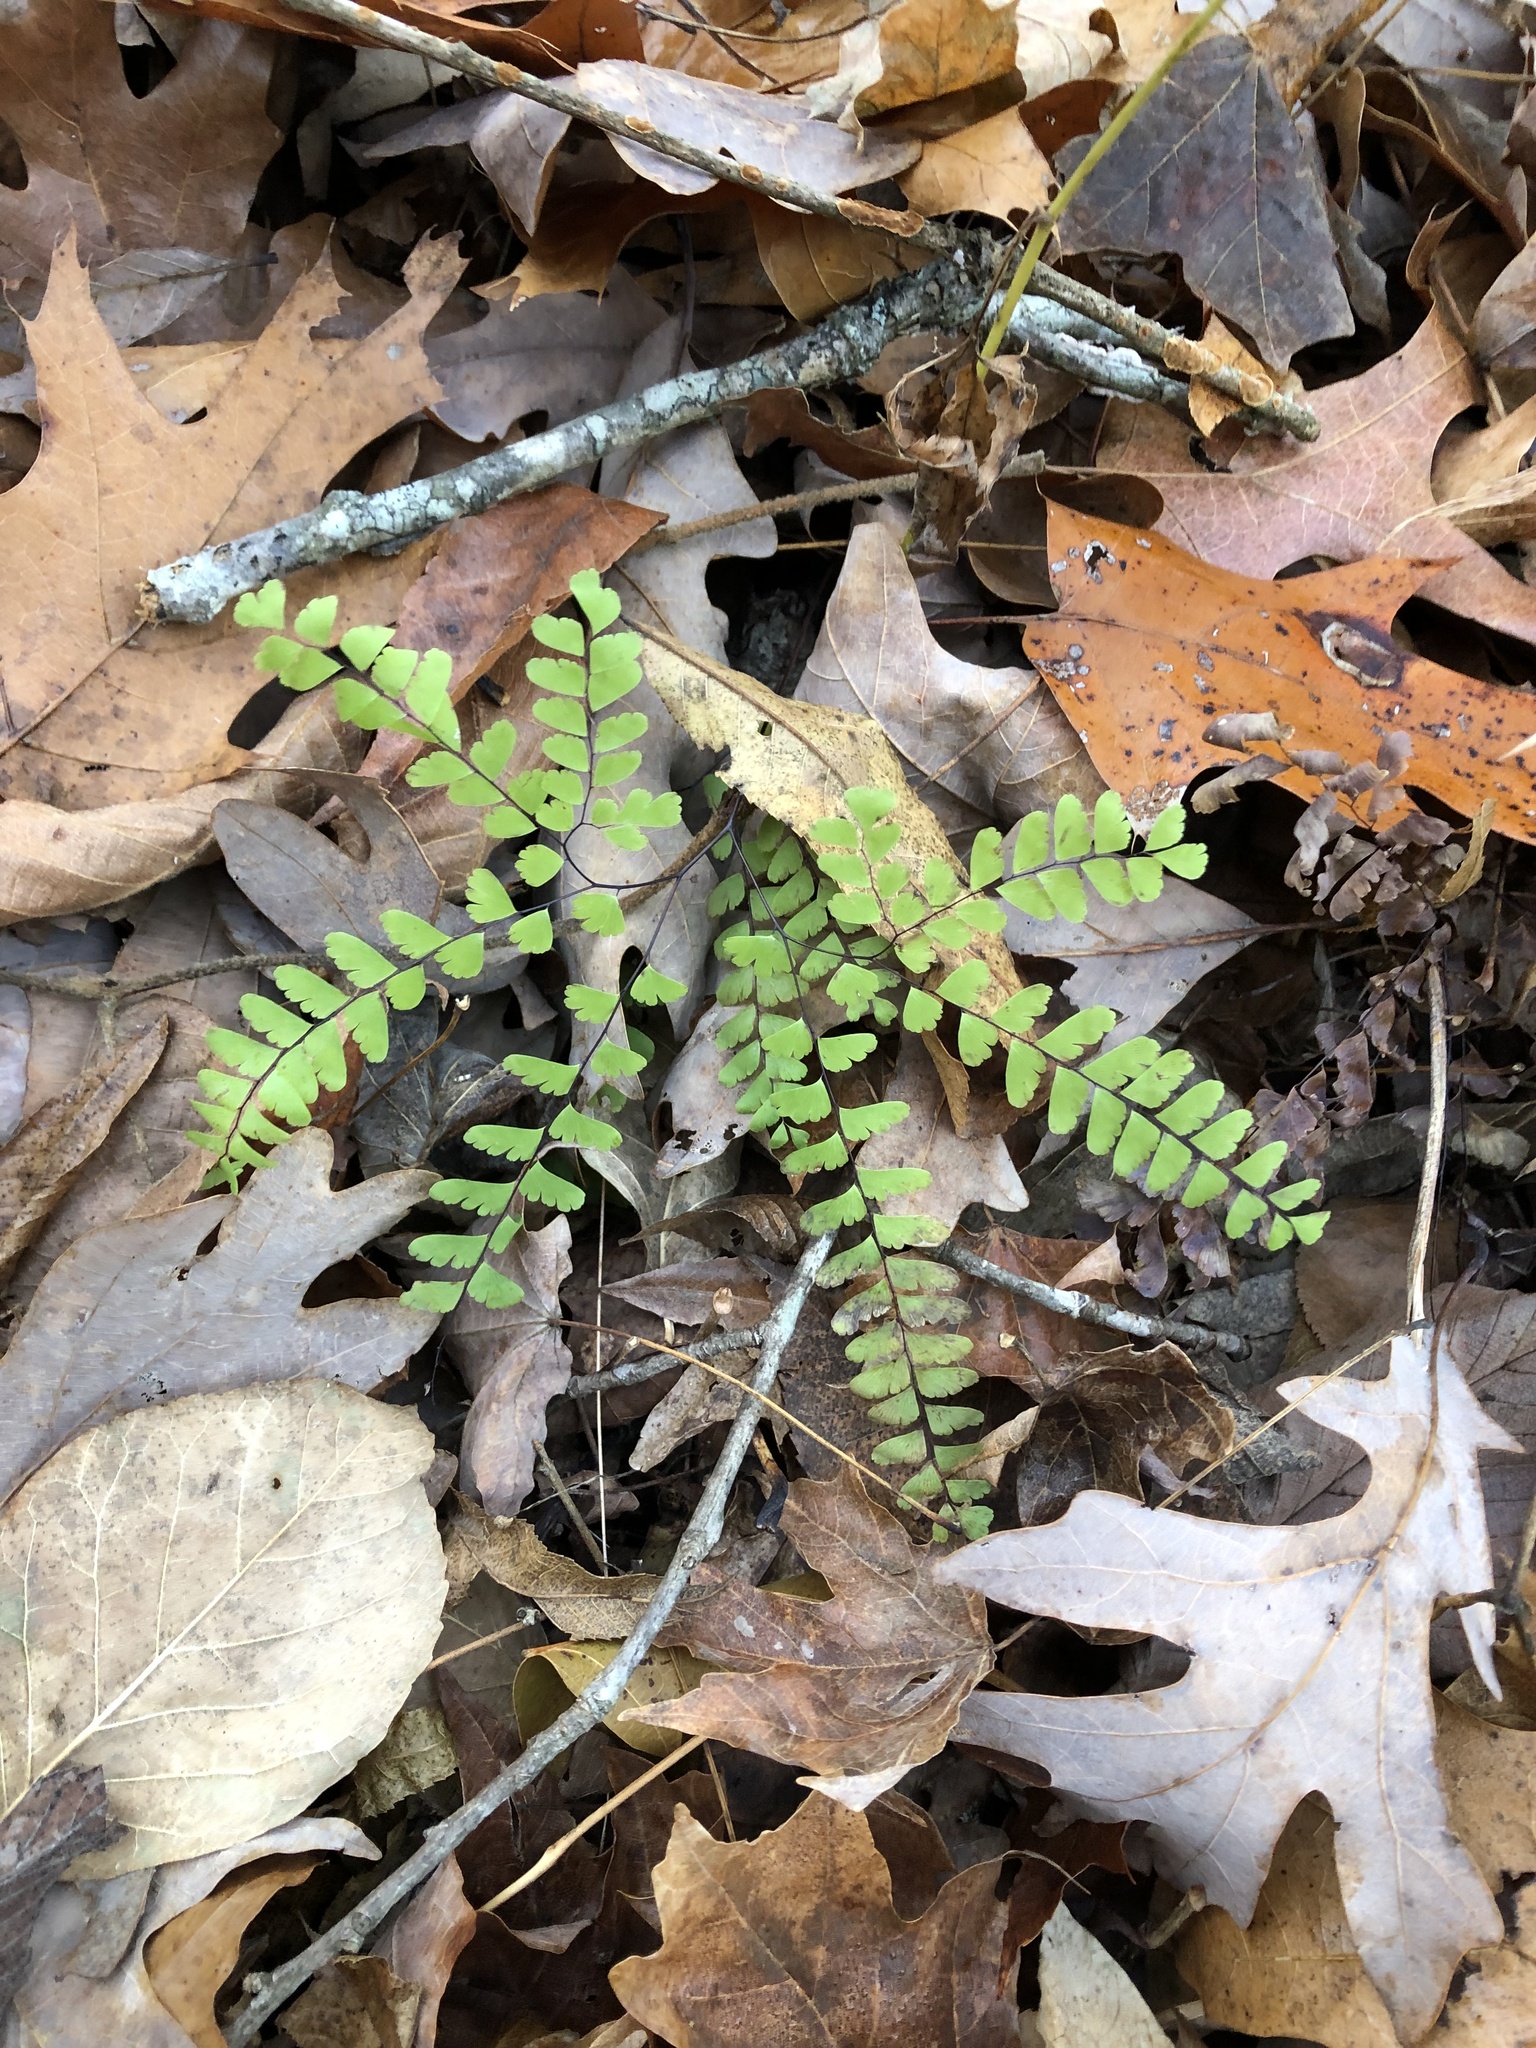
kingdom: Plantae
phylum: Tracheophyta
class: Polypodiopsida
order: Polypodiales
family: Pteridaceae
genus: Adiantum
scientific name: Adiantum pedatum
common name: Five-finger fern
